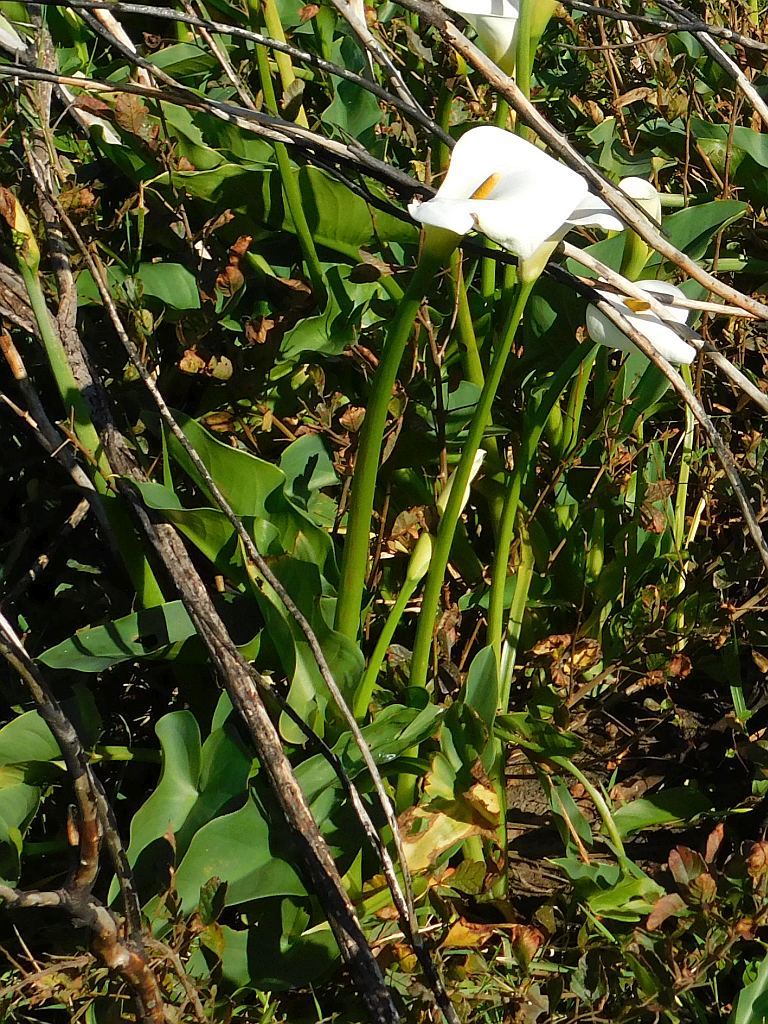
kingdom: Plantae
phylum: Tracheophyta
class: Liliopsida
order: Alismatales
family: Araceae
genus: Zantedeschia
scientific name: Zantedeschia aethiopica
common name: Altar-lily
